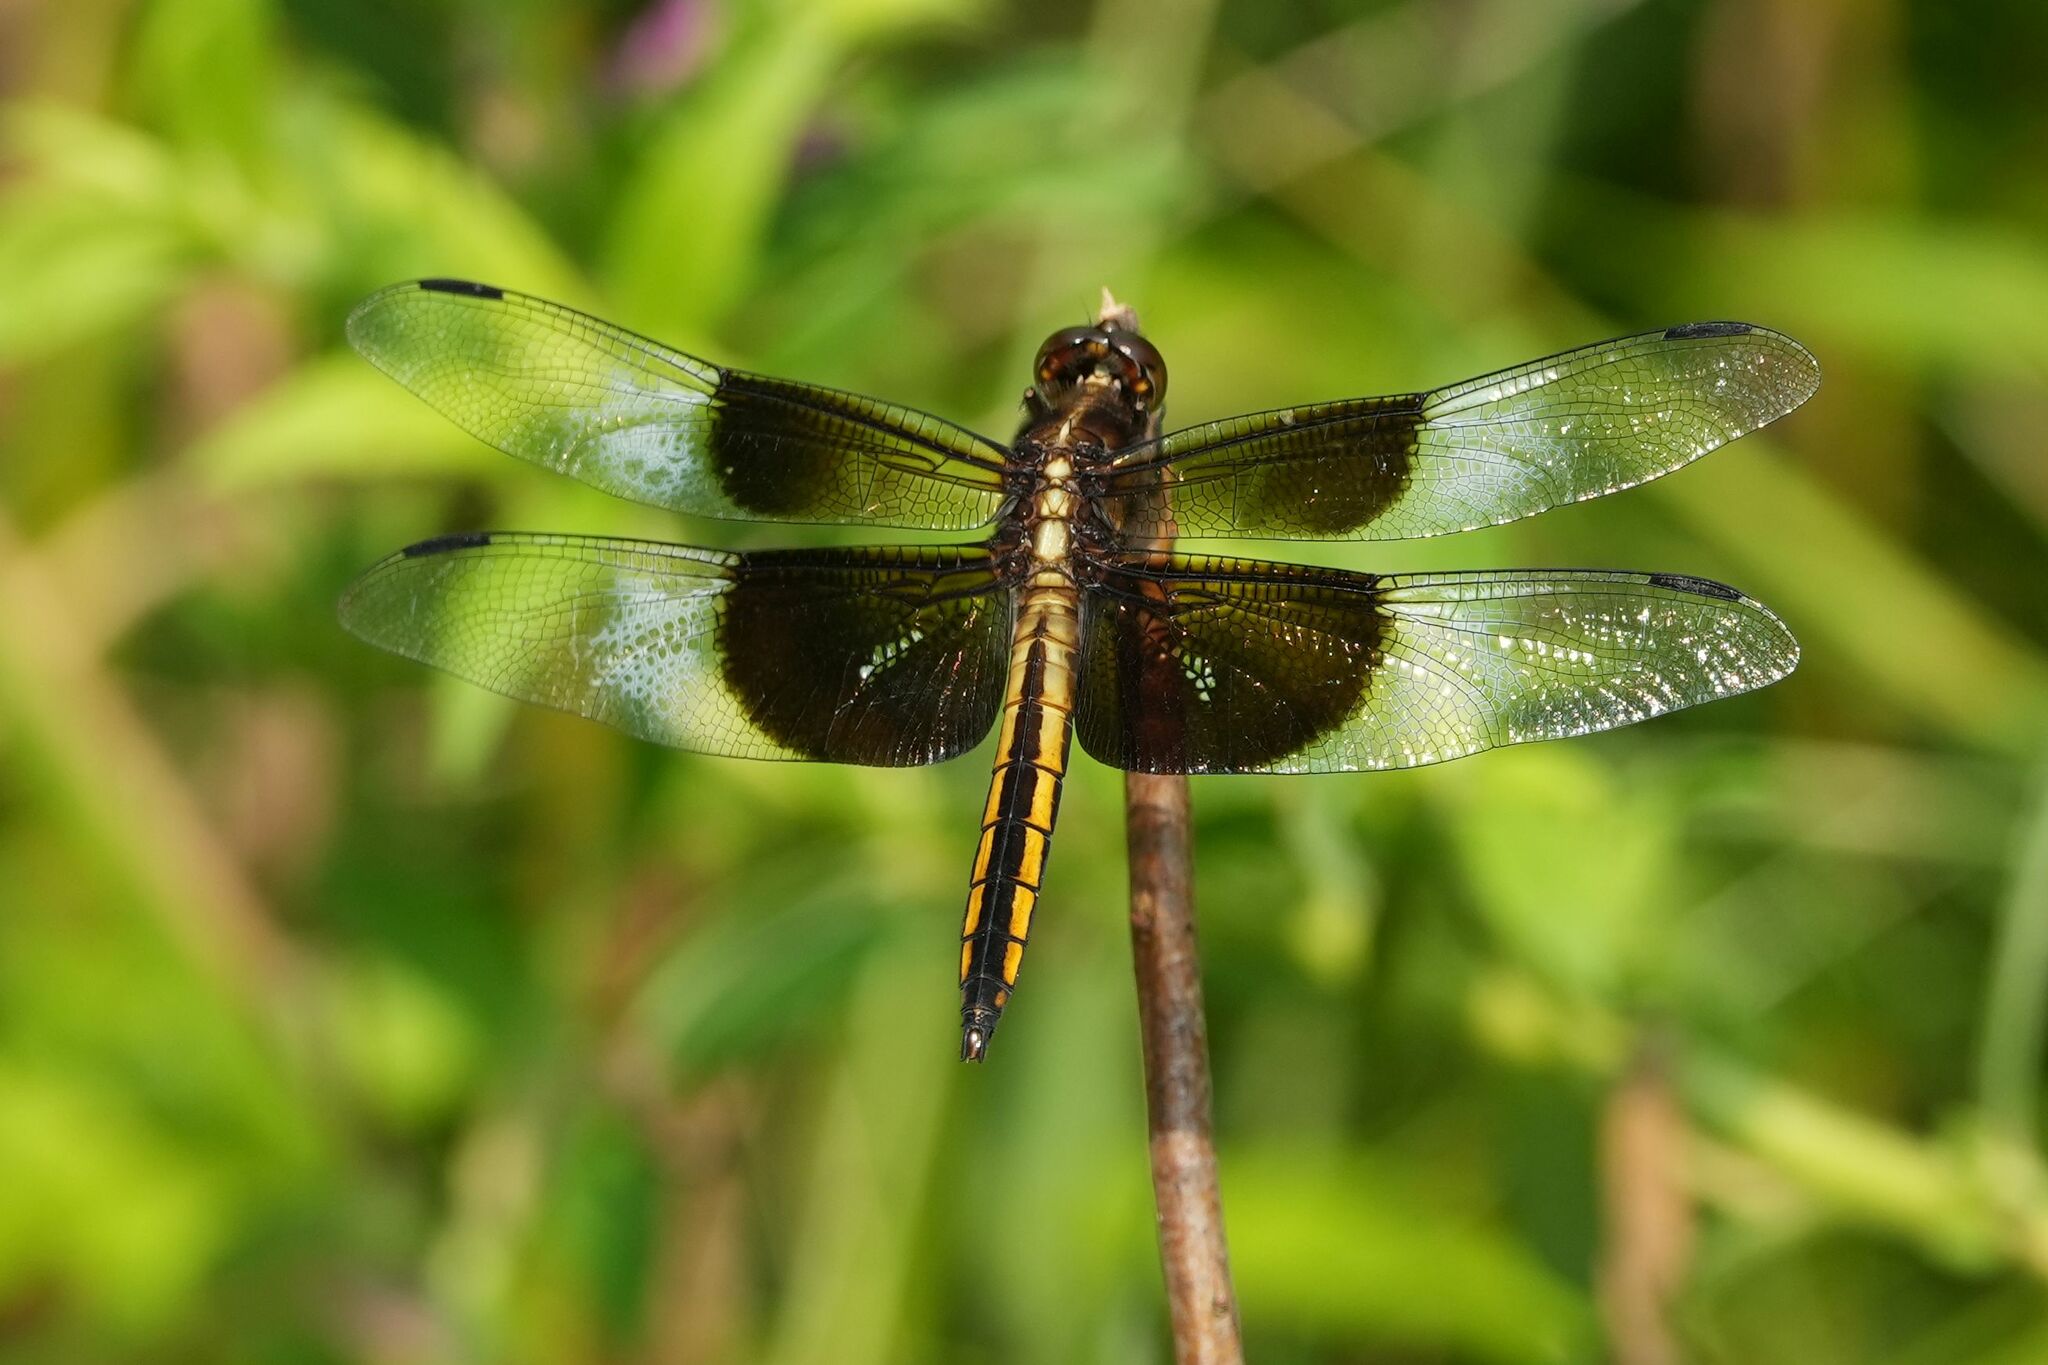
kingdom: Animalia
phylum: Arthropoda
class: Insecta
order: Odonata
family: Libellulidae
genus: Libellula
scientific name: Libellula luctuosa
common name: Widow skimmer
